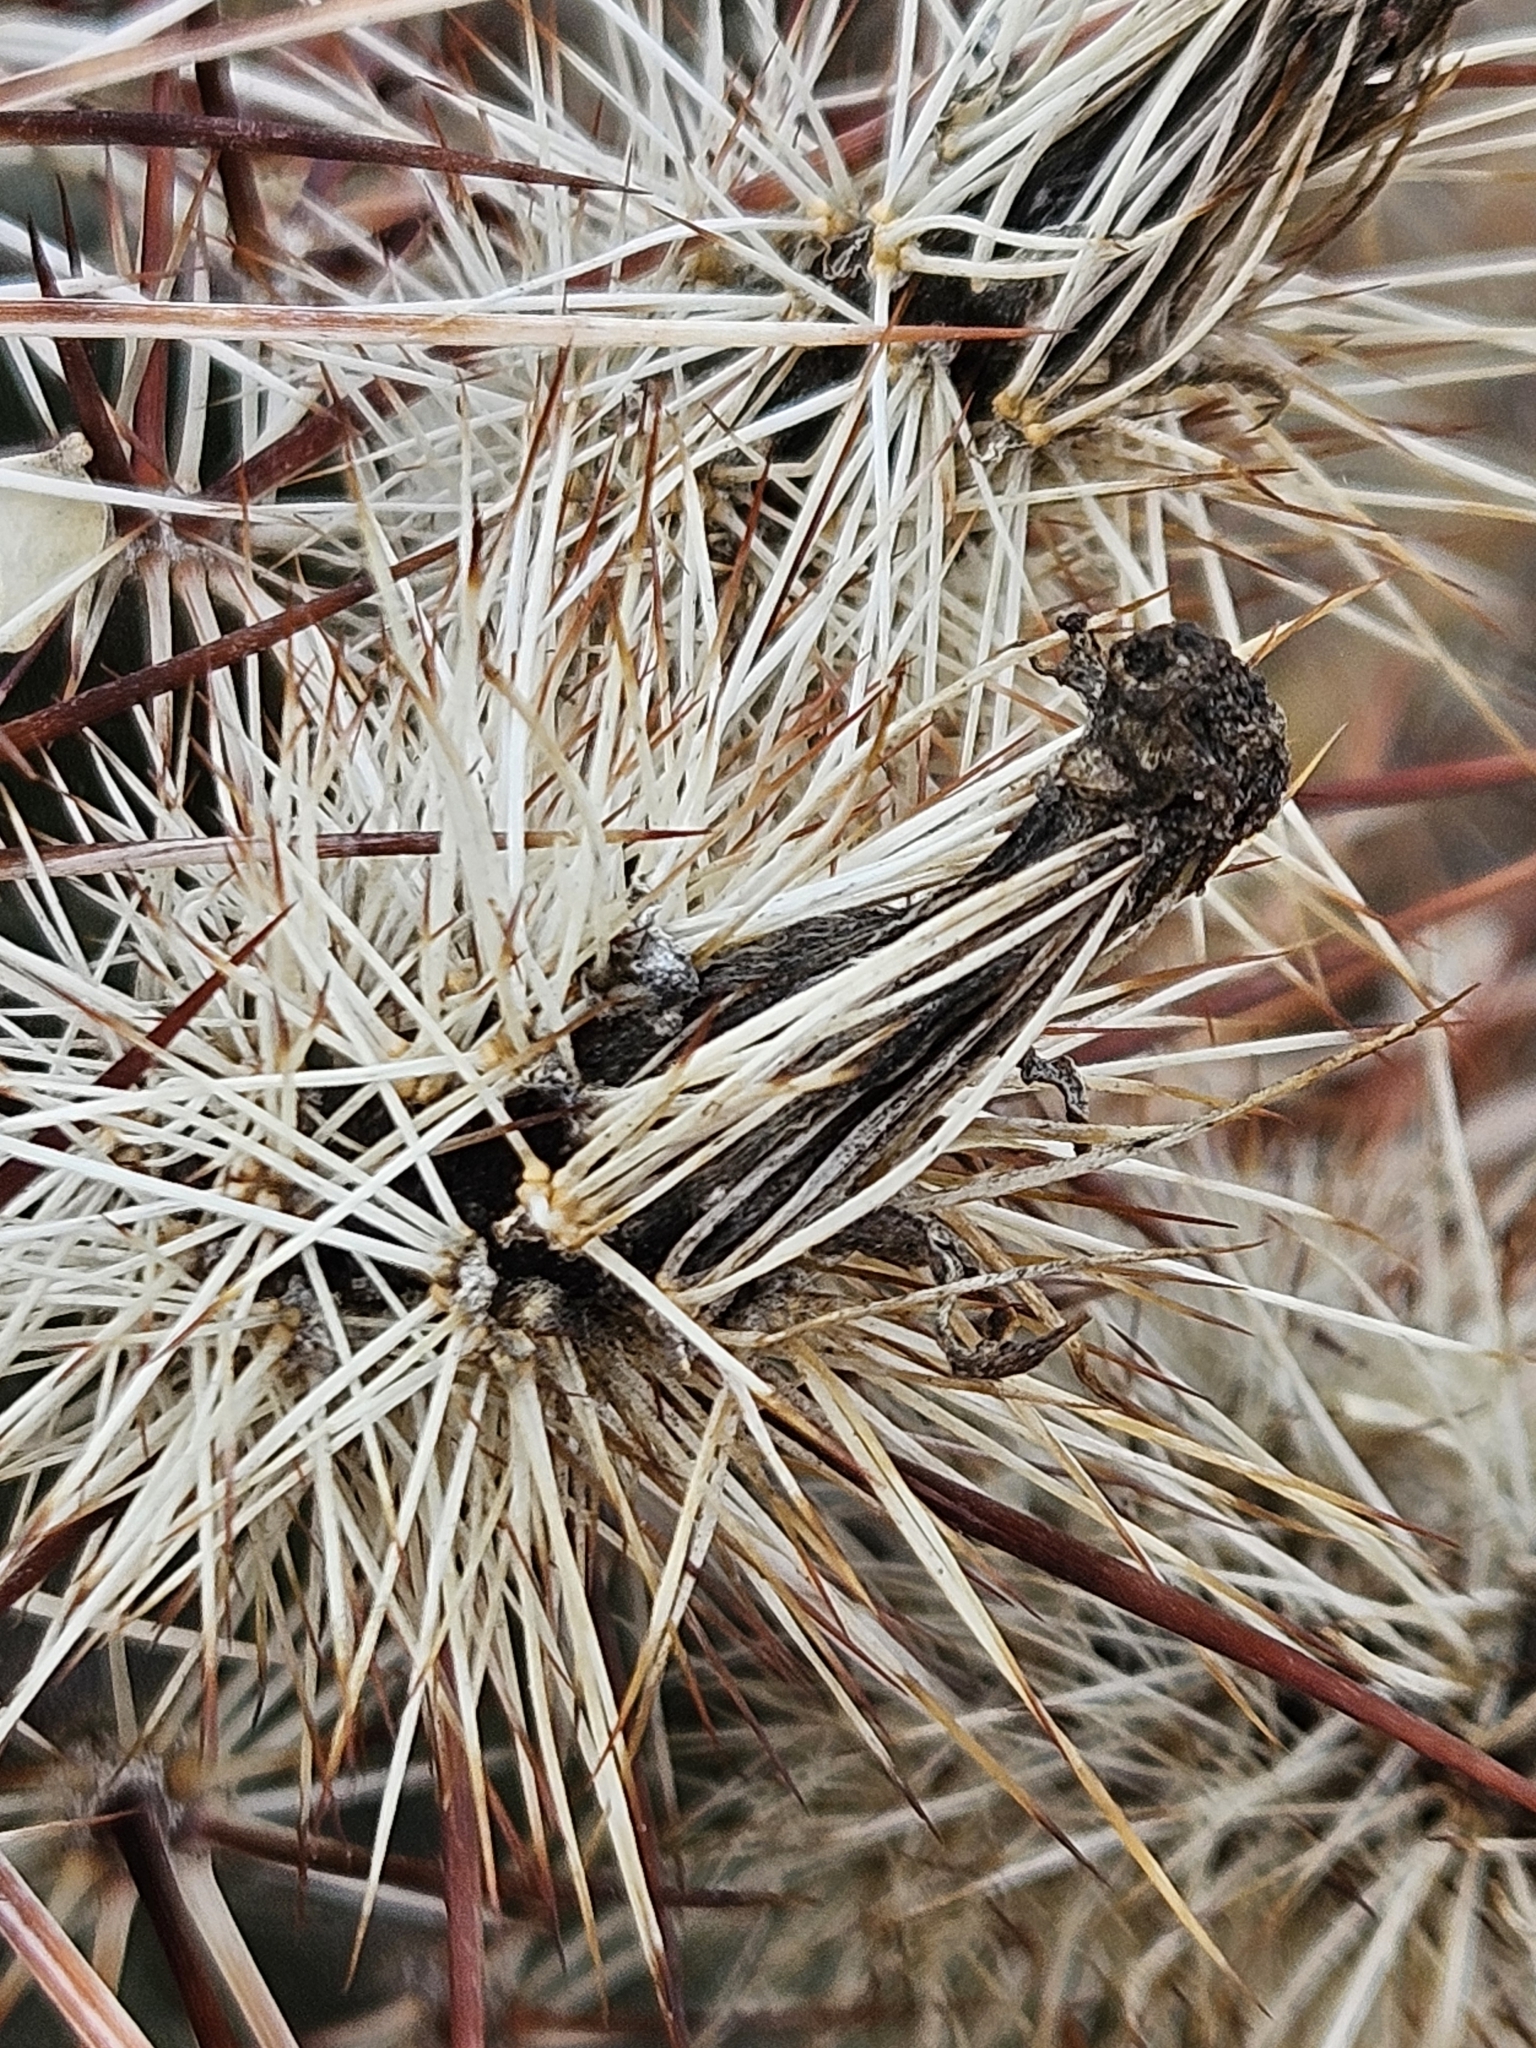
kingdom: Plantae
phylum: Tracheophyta
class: Magnoliopsida
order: Caryophyllales
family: Cactaceae
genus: Echinocereus
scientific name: Echinocereus engelmannii
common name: Engelmann's hedgehog cactus
